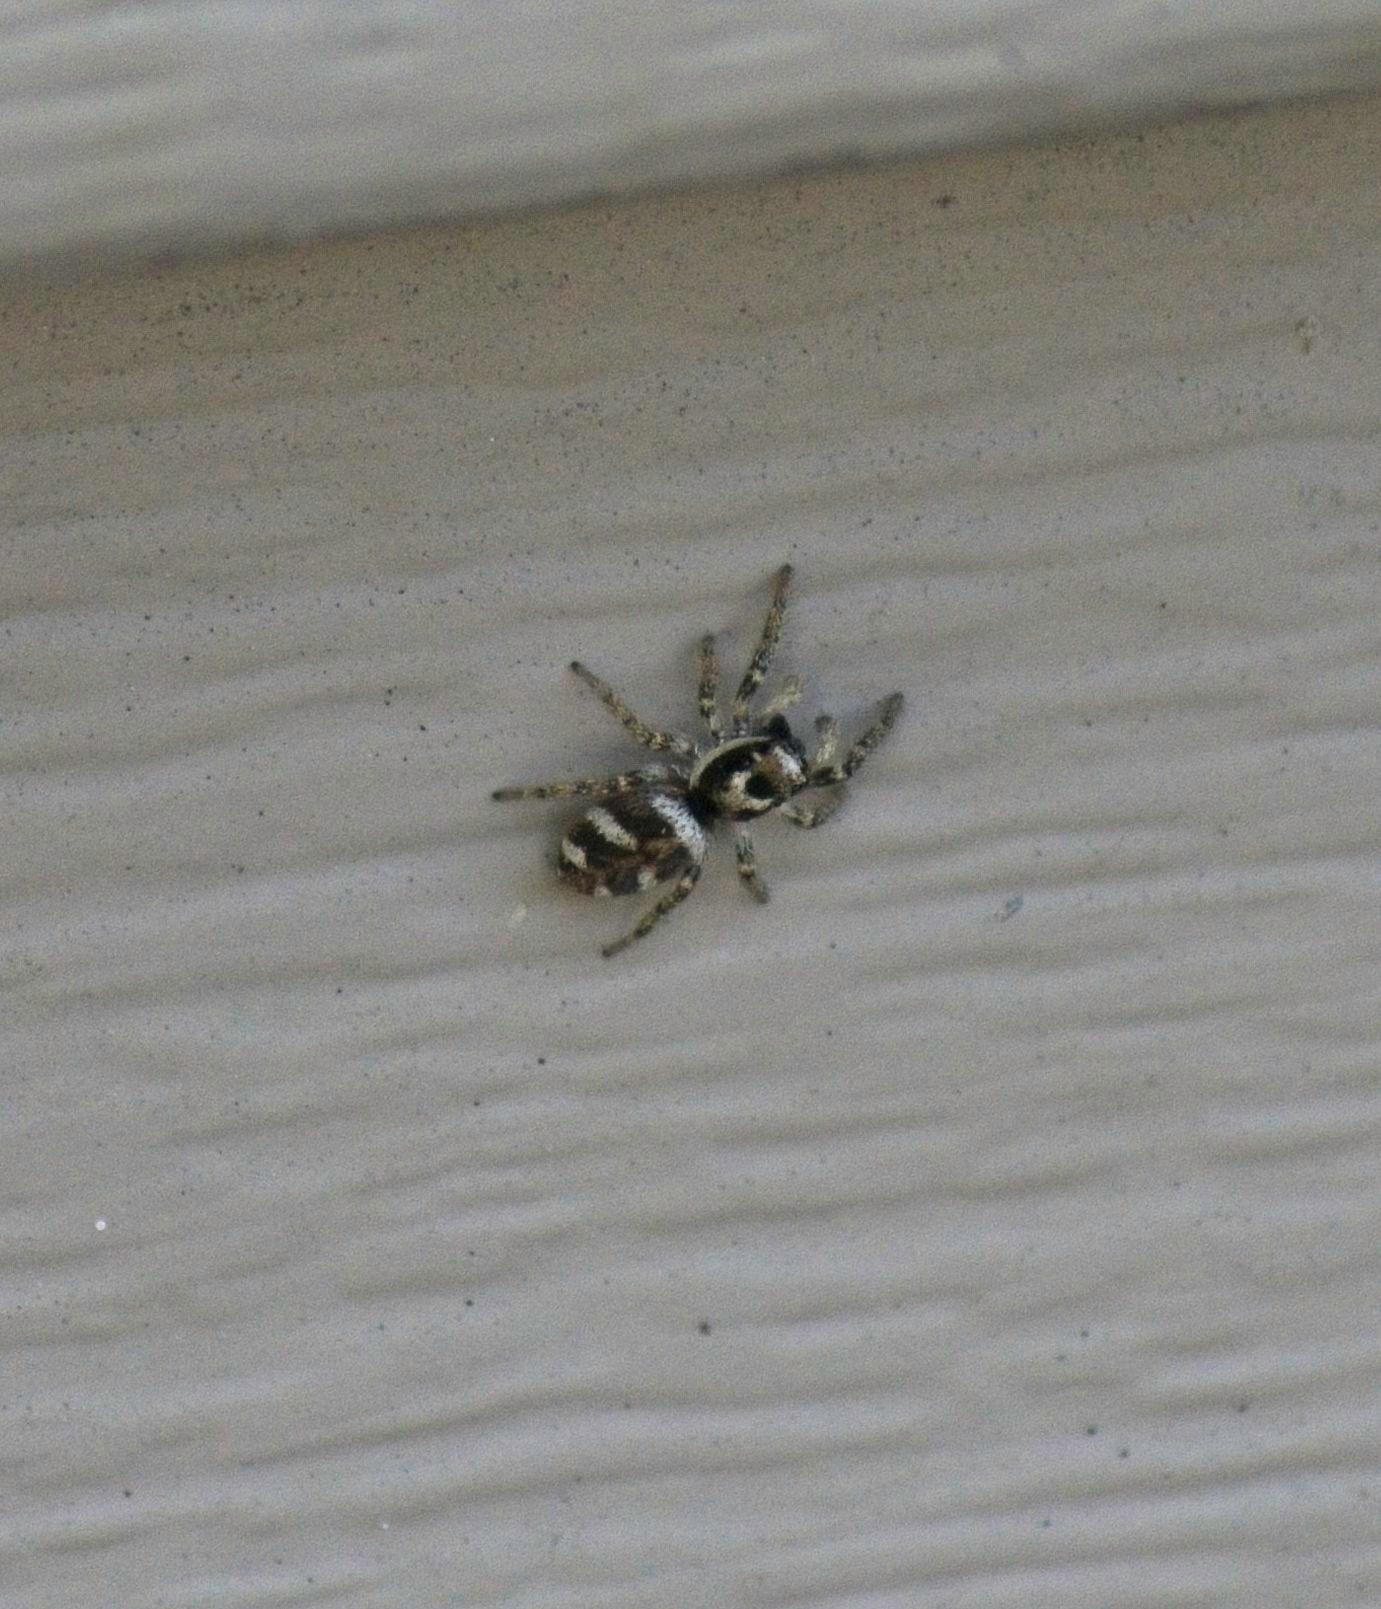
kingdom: Animalia
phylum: Arthropoda
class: Arachnida
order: Araneae
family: Salticidae
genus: Salticus
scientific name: Salticus scenicus
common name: Zebra jumper
